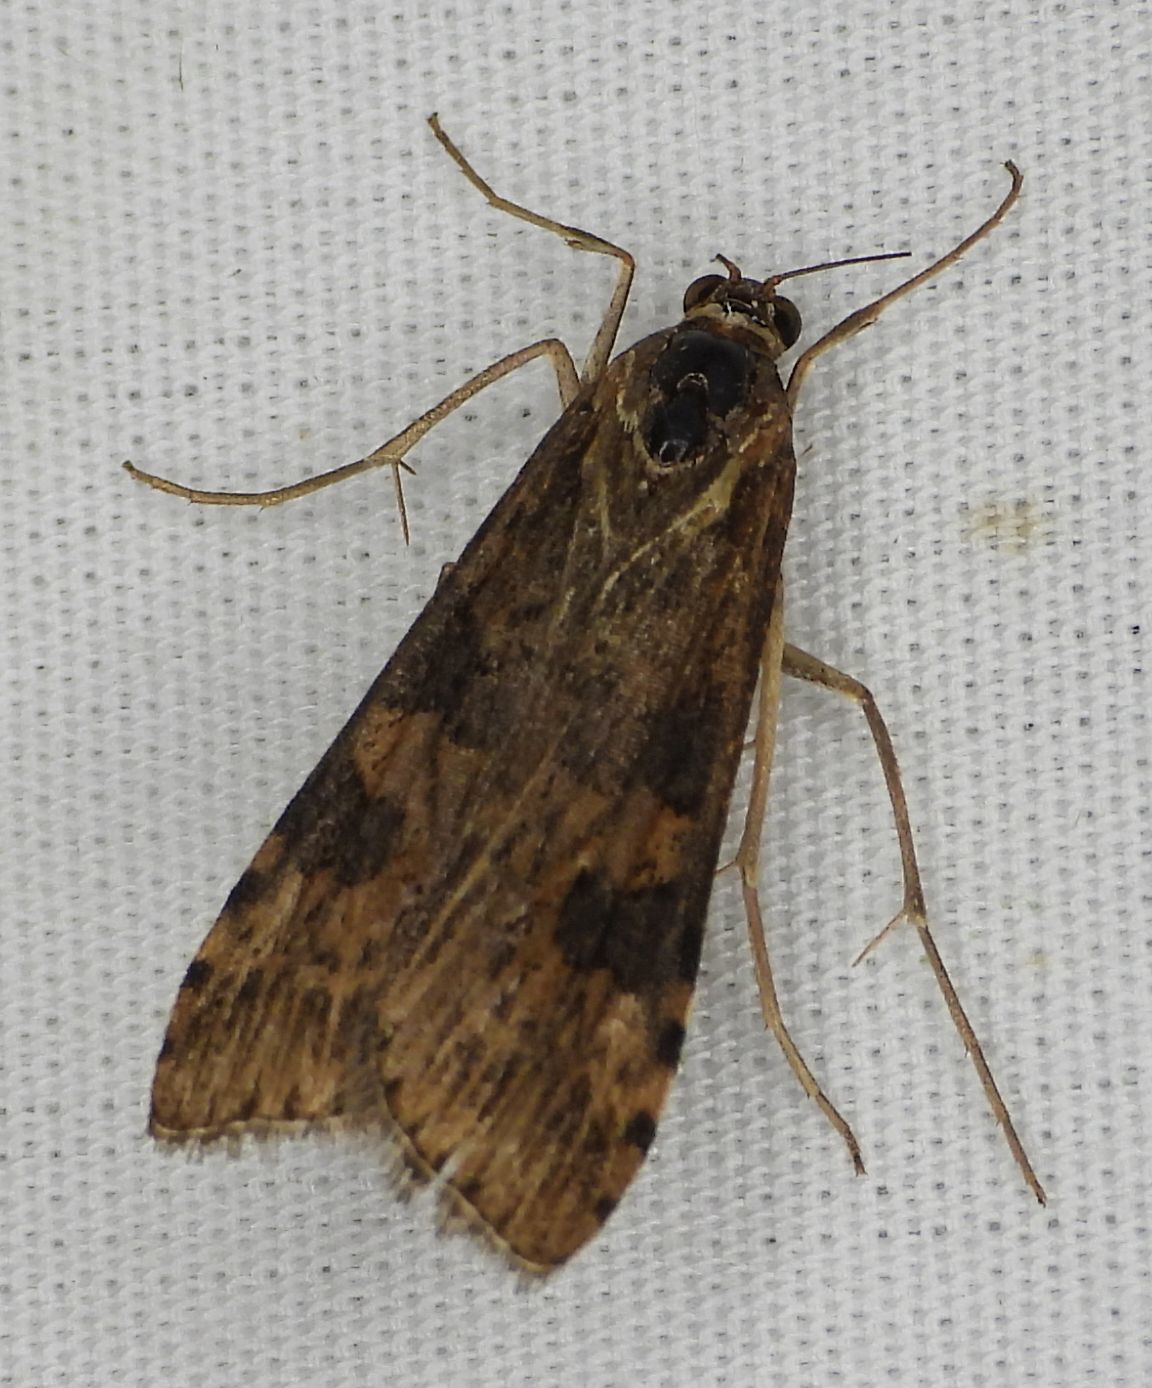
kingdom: Animalia
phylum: Arthropoda
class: Insecta
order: Lepidoptera
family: Crambidae
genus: Nomophila
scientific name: Nomophila nearctica
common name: American rush veneer
